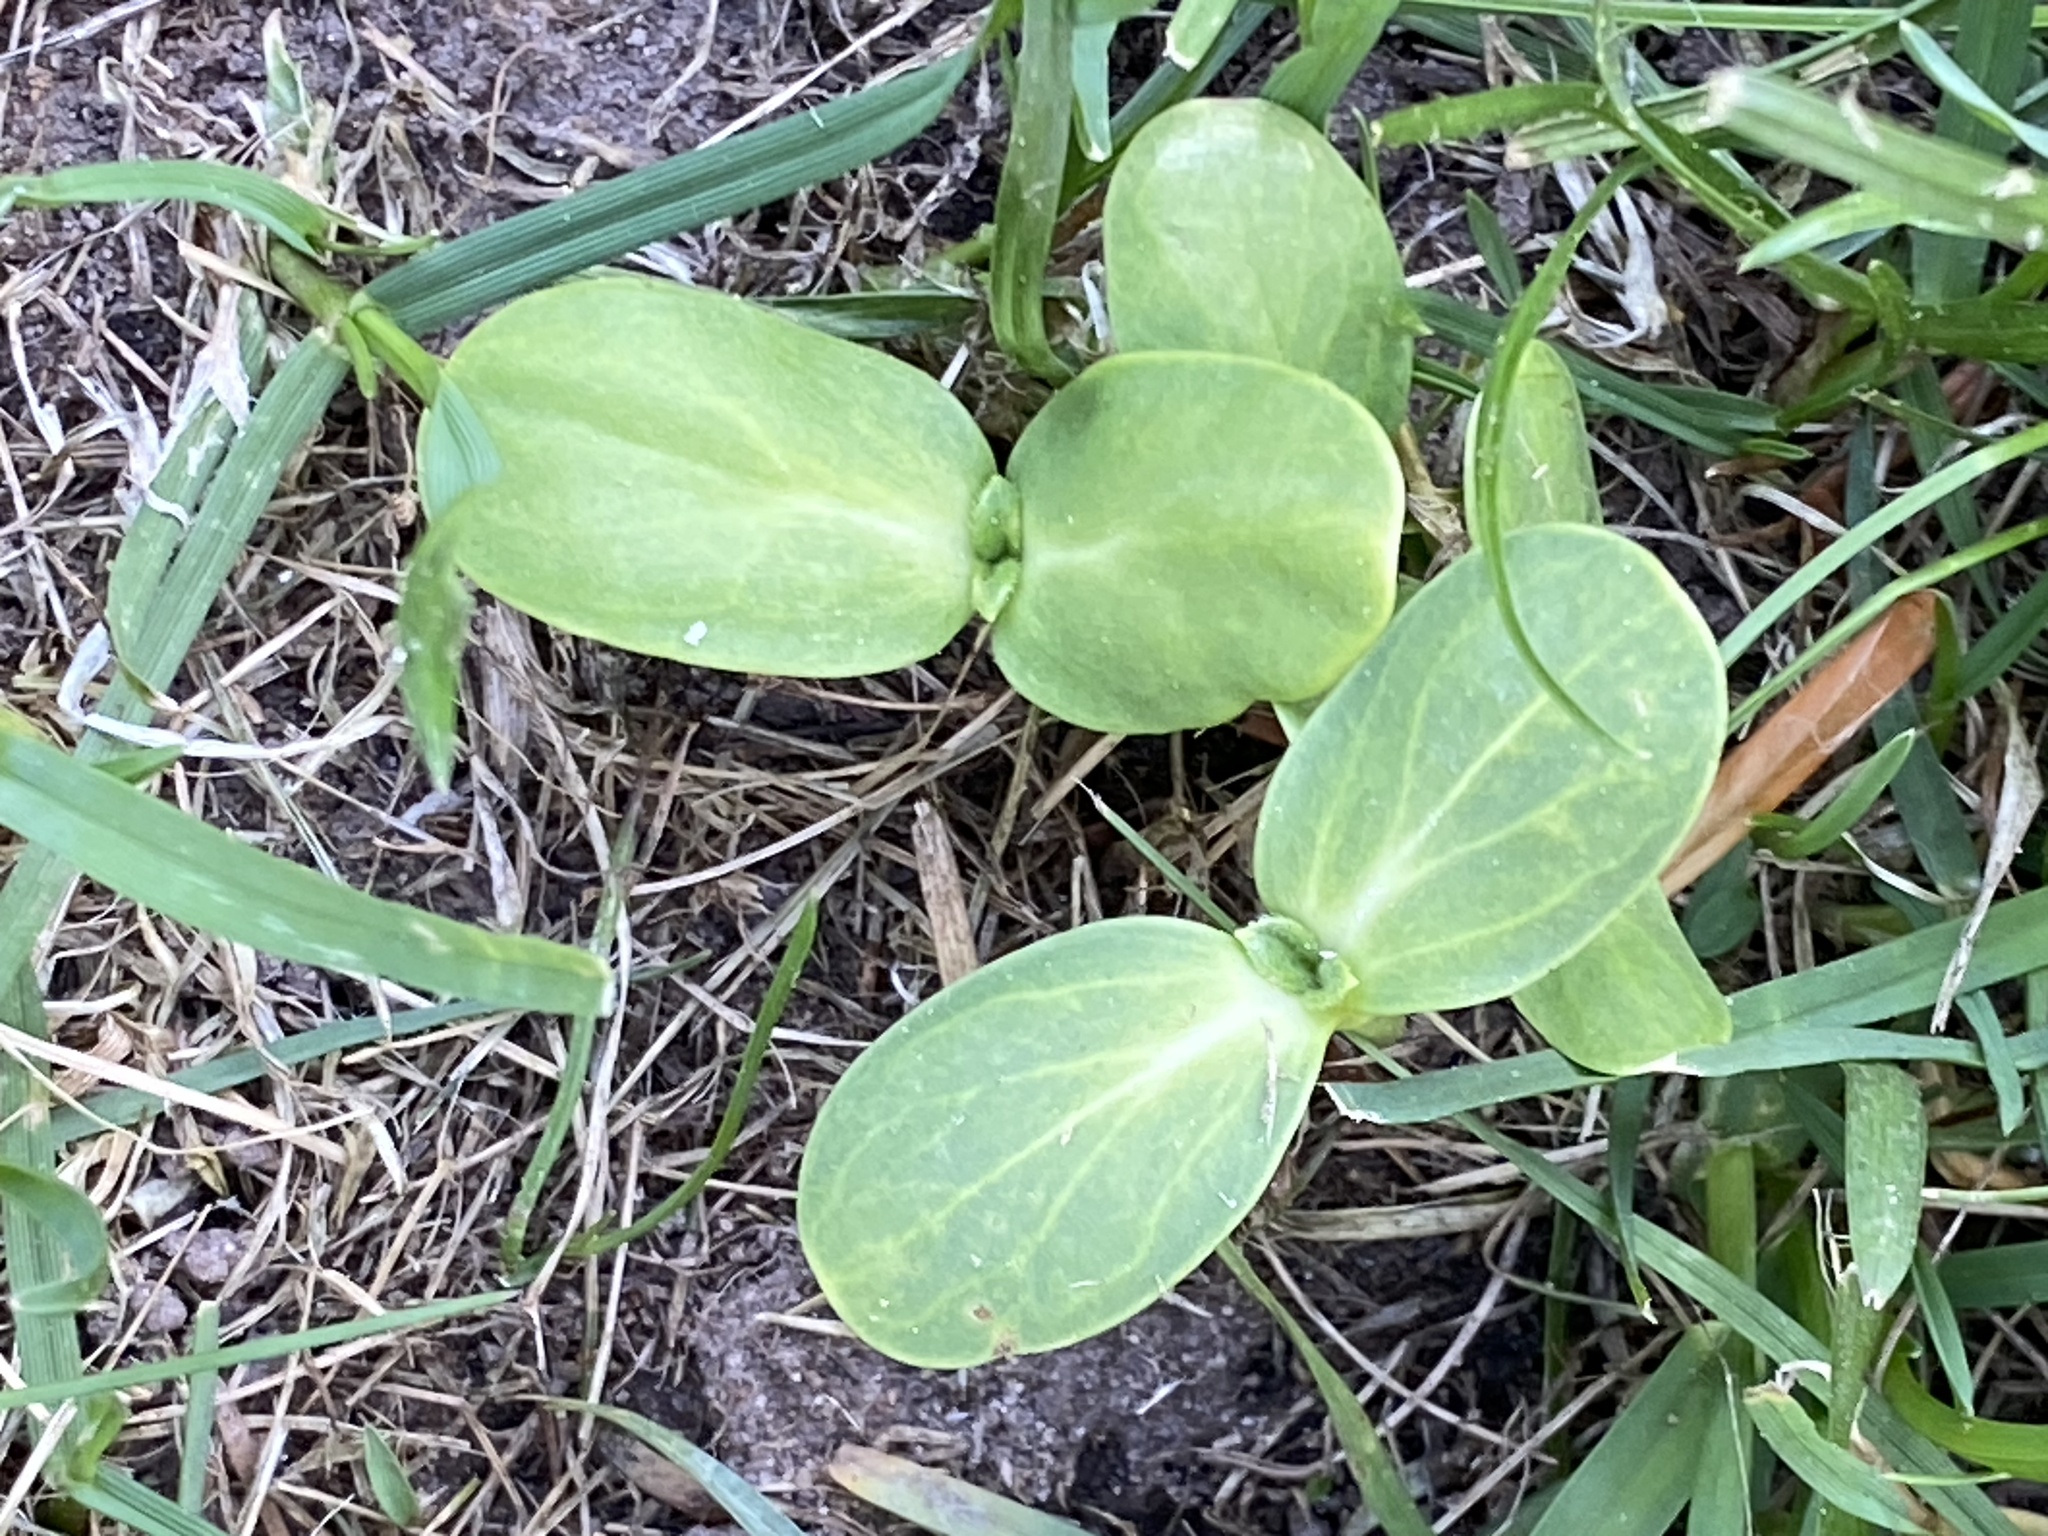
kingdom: Plantae
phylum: Tracheophyta
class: Magnoliopsida
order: Cucurbitales
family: Cucurbitaceae
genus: Echinocystis
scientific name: Echinocystis lobata
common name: Wild cucumber
